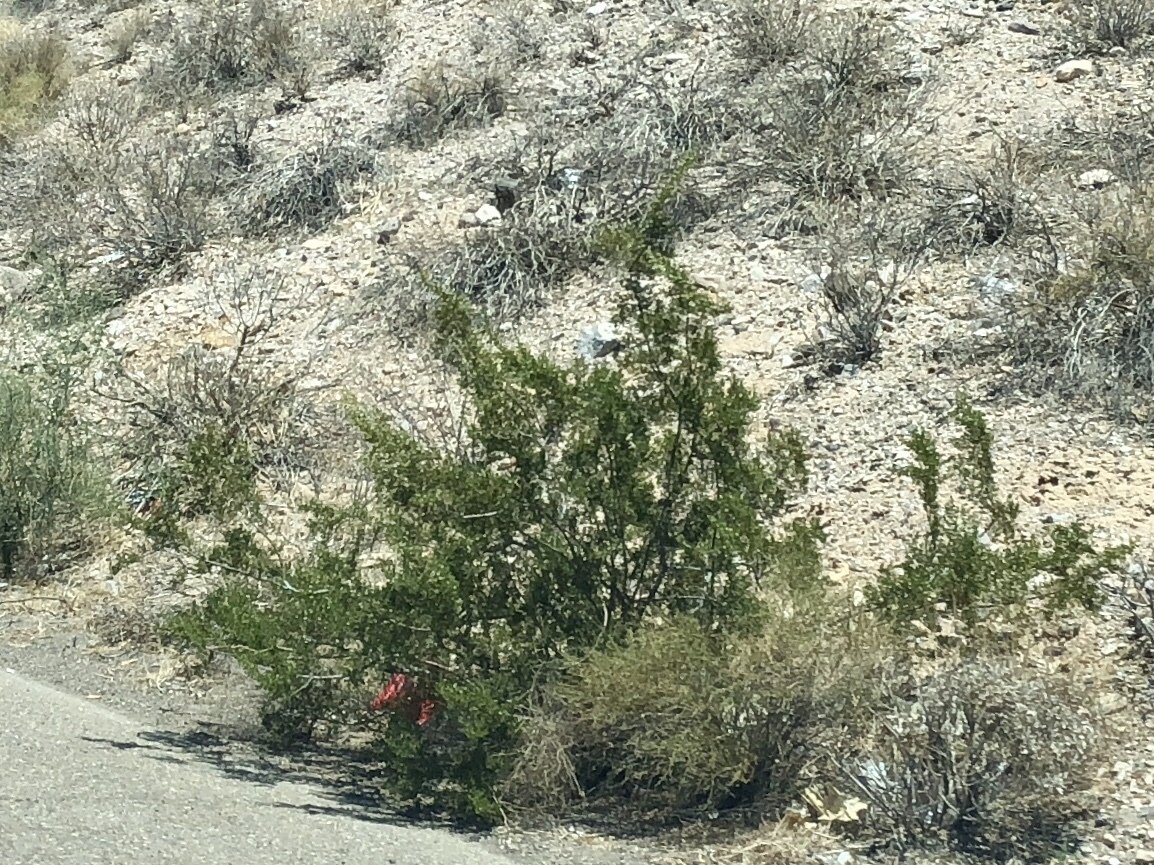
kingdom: Plantae
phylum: Tracheophyta
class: Magnoliopsida
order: Zygophyllales
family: Zygophyllaceae
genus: Larrea
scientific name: Larrea tridentata
